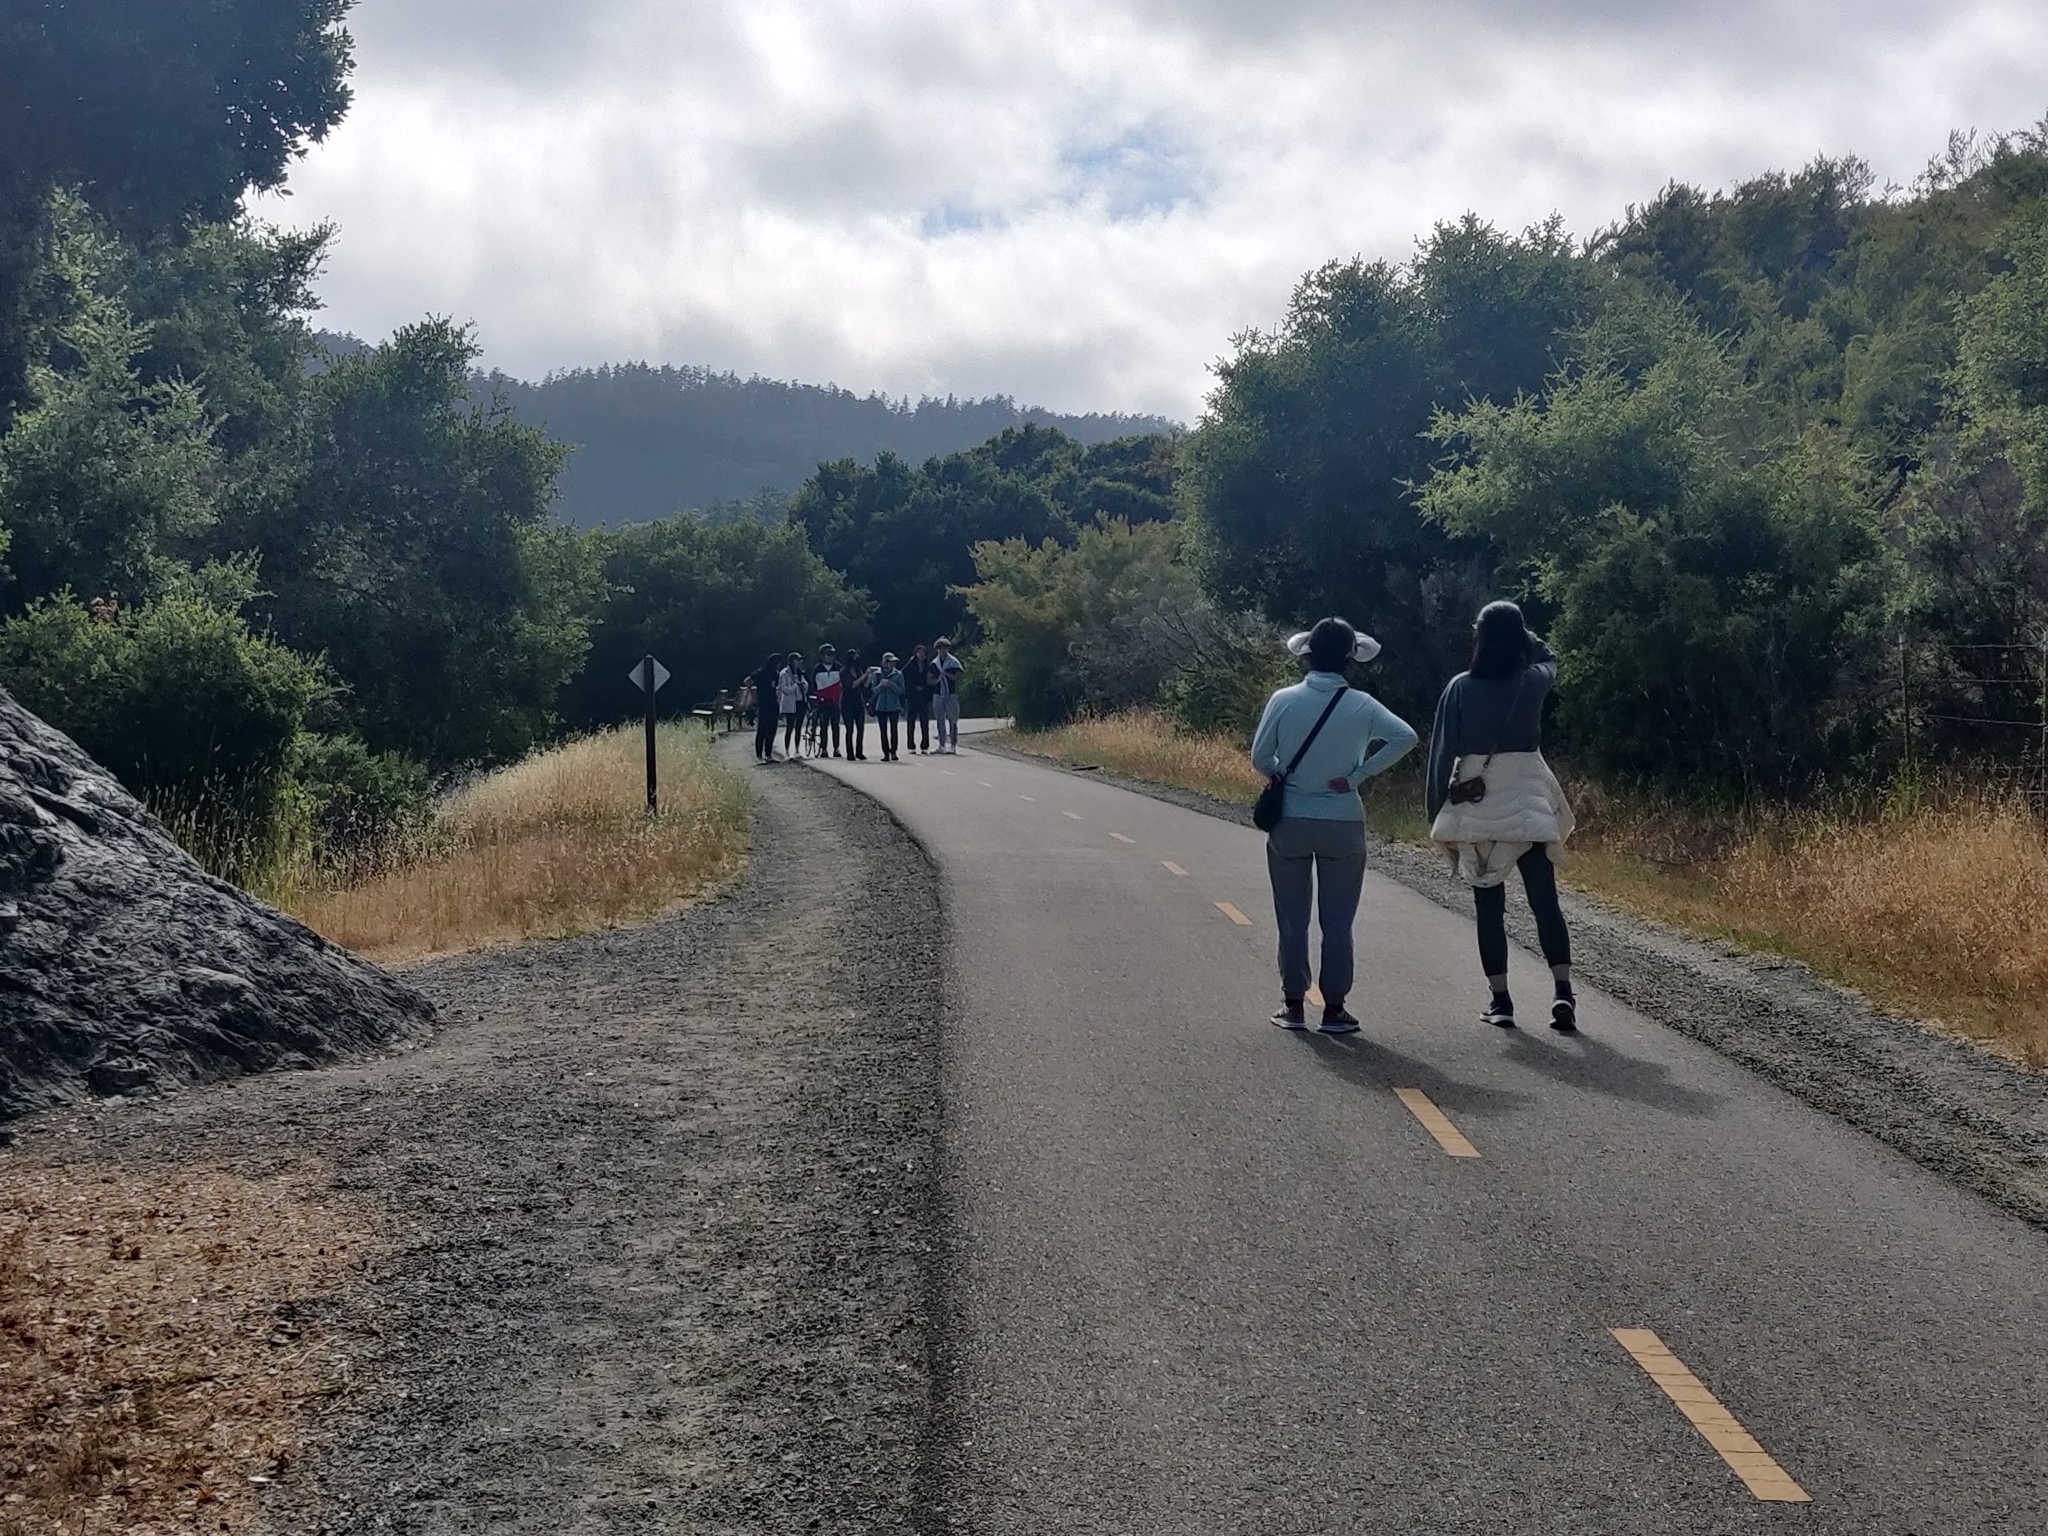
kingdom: Animalia
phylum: Chordata
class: Squamata
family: Viperidae
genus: Crotalus
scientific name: Crotalus oreganus
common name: Abyssus
